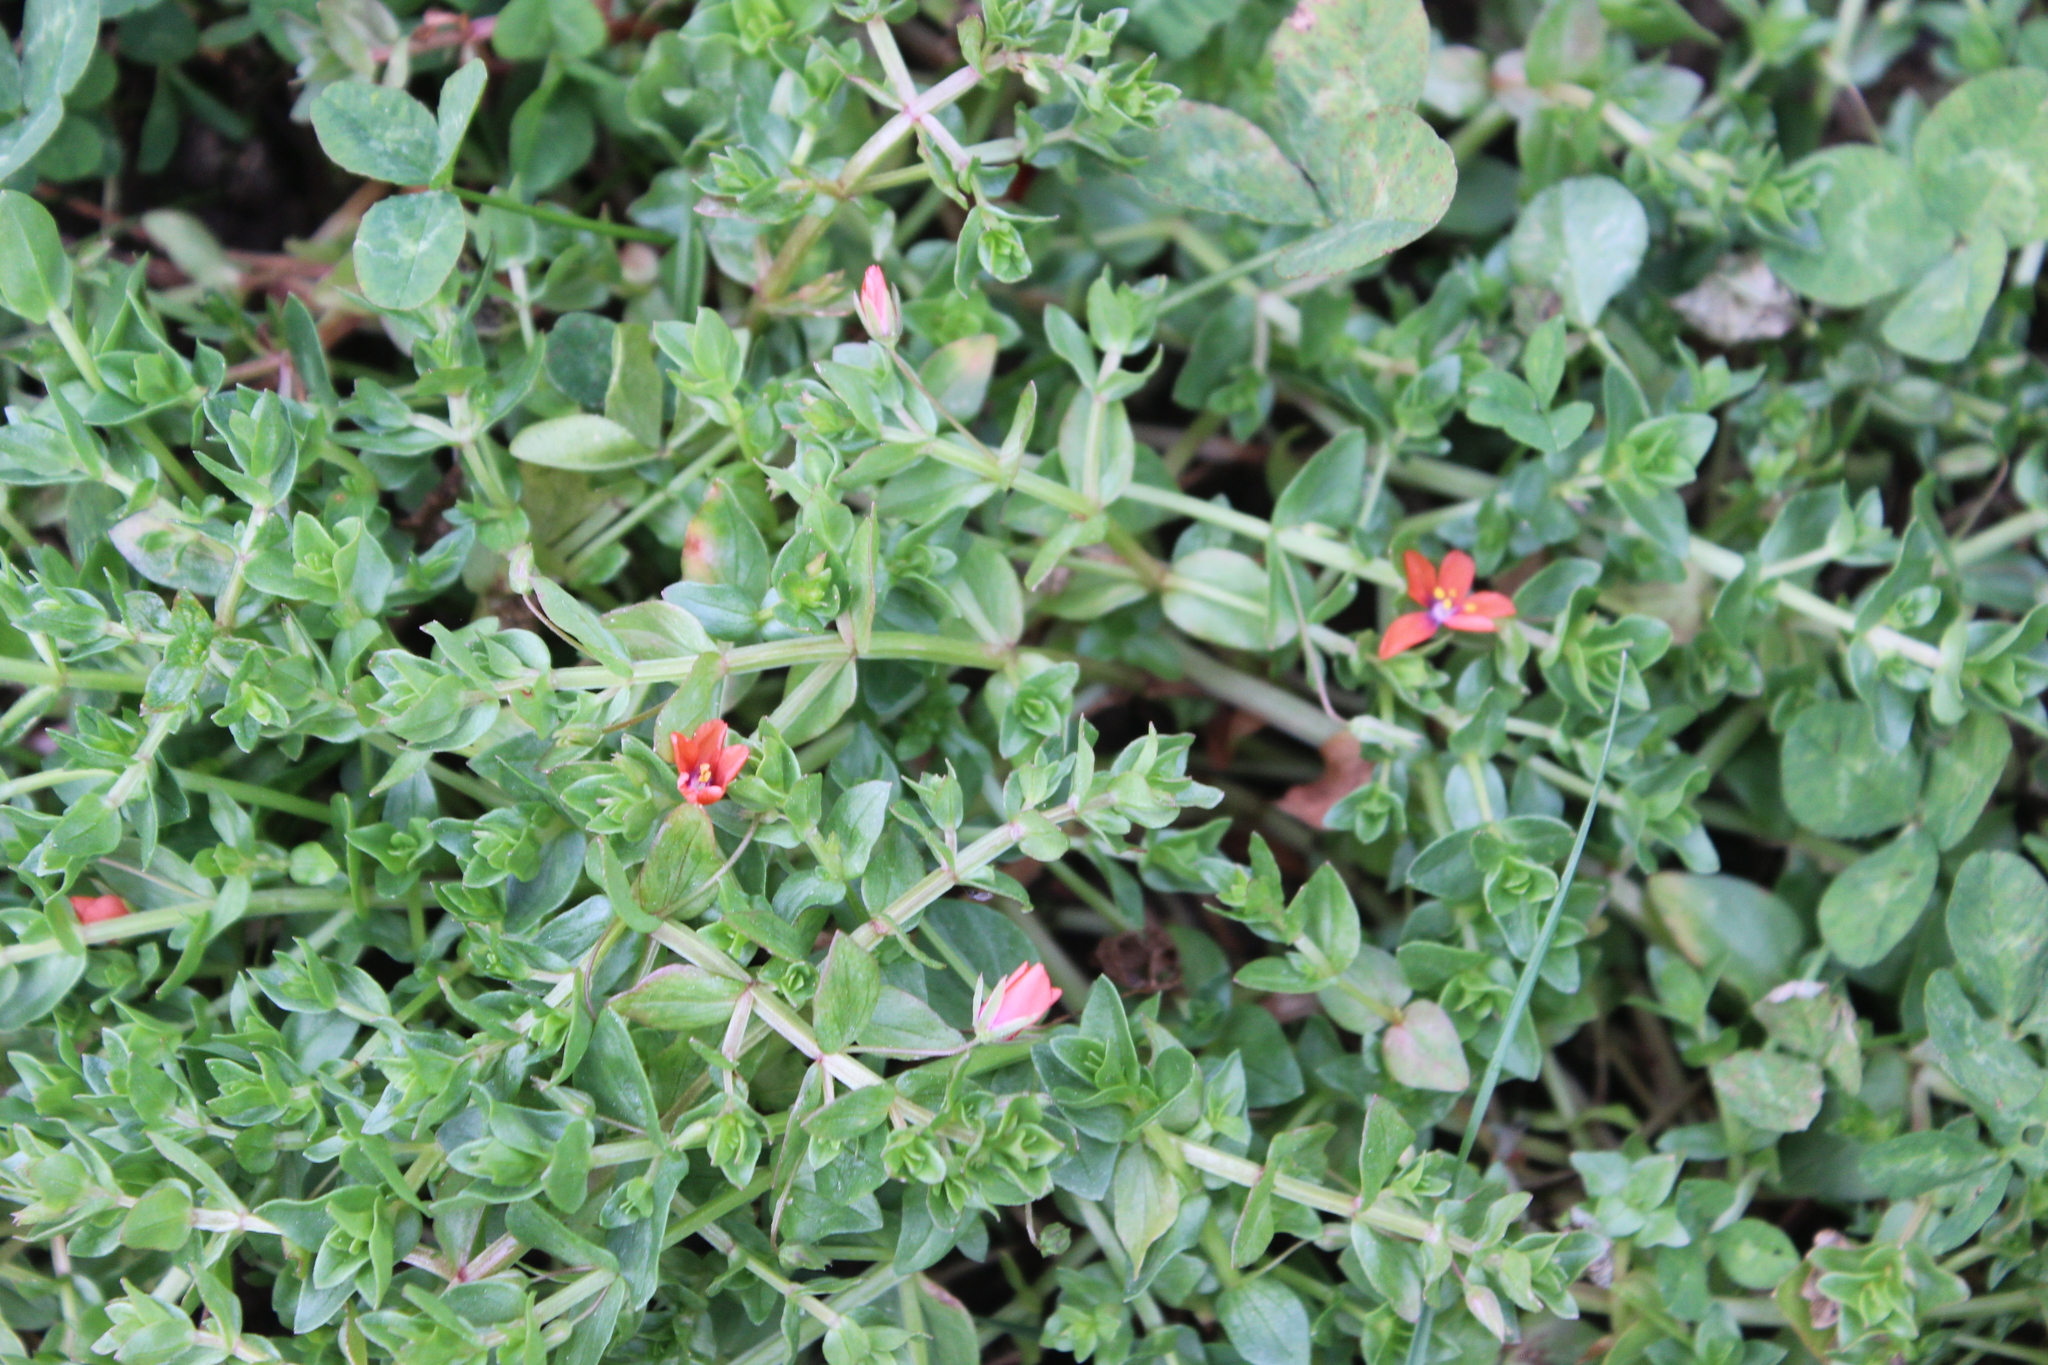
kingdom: Plantae
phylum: Tracheophyta
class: Magnoliopsida
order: Ericales
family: Primulaceae
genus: Lysimachia
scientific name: Lysimachia arvensis
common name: Scarlet pimpernel
